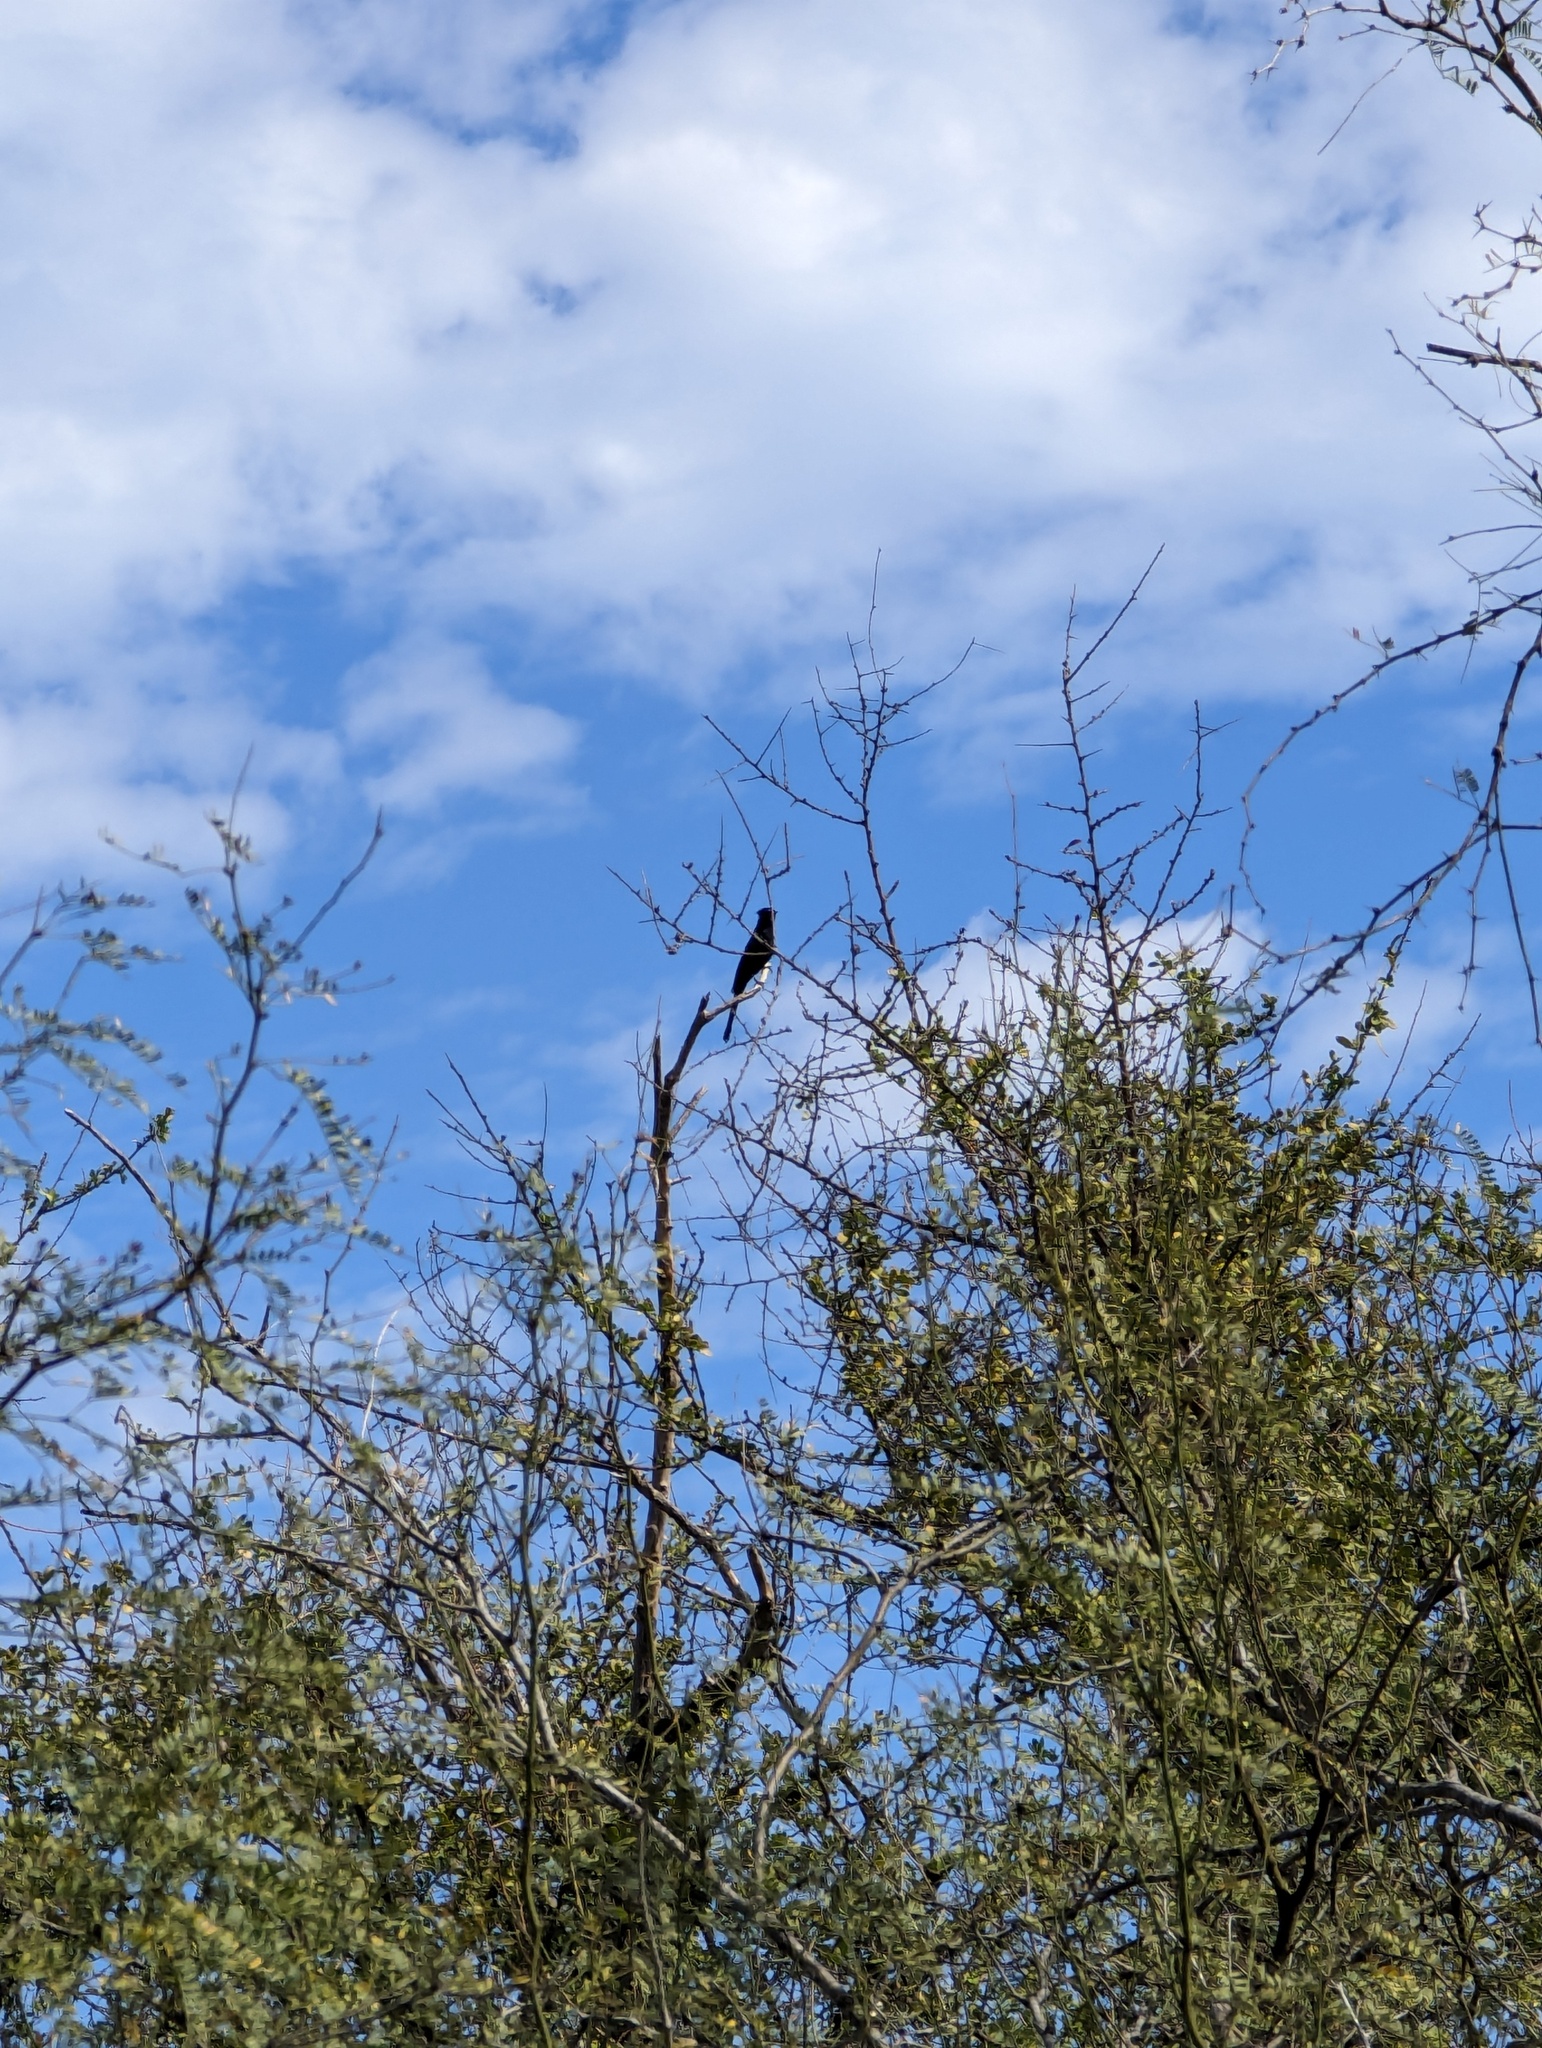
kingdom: Animalia
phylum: Chordata
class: Aves
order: Passeriformes
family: Ptilogonatidae
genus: Phainopepla
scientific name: Phainopepla nitens
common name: Phainopepla
